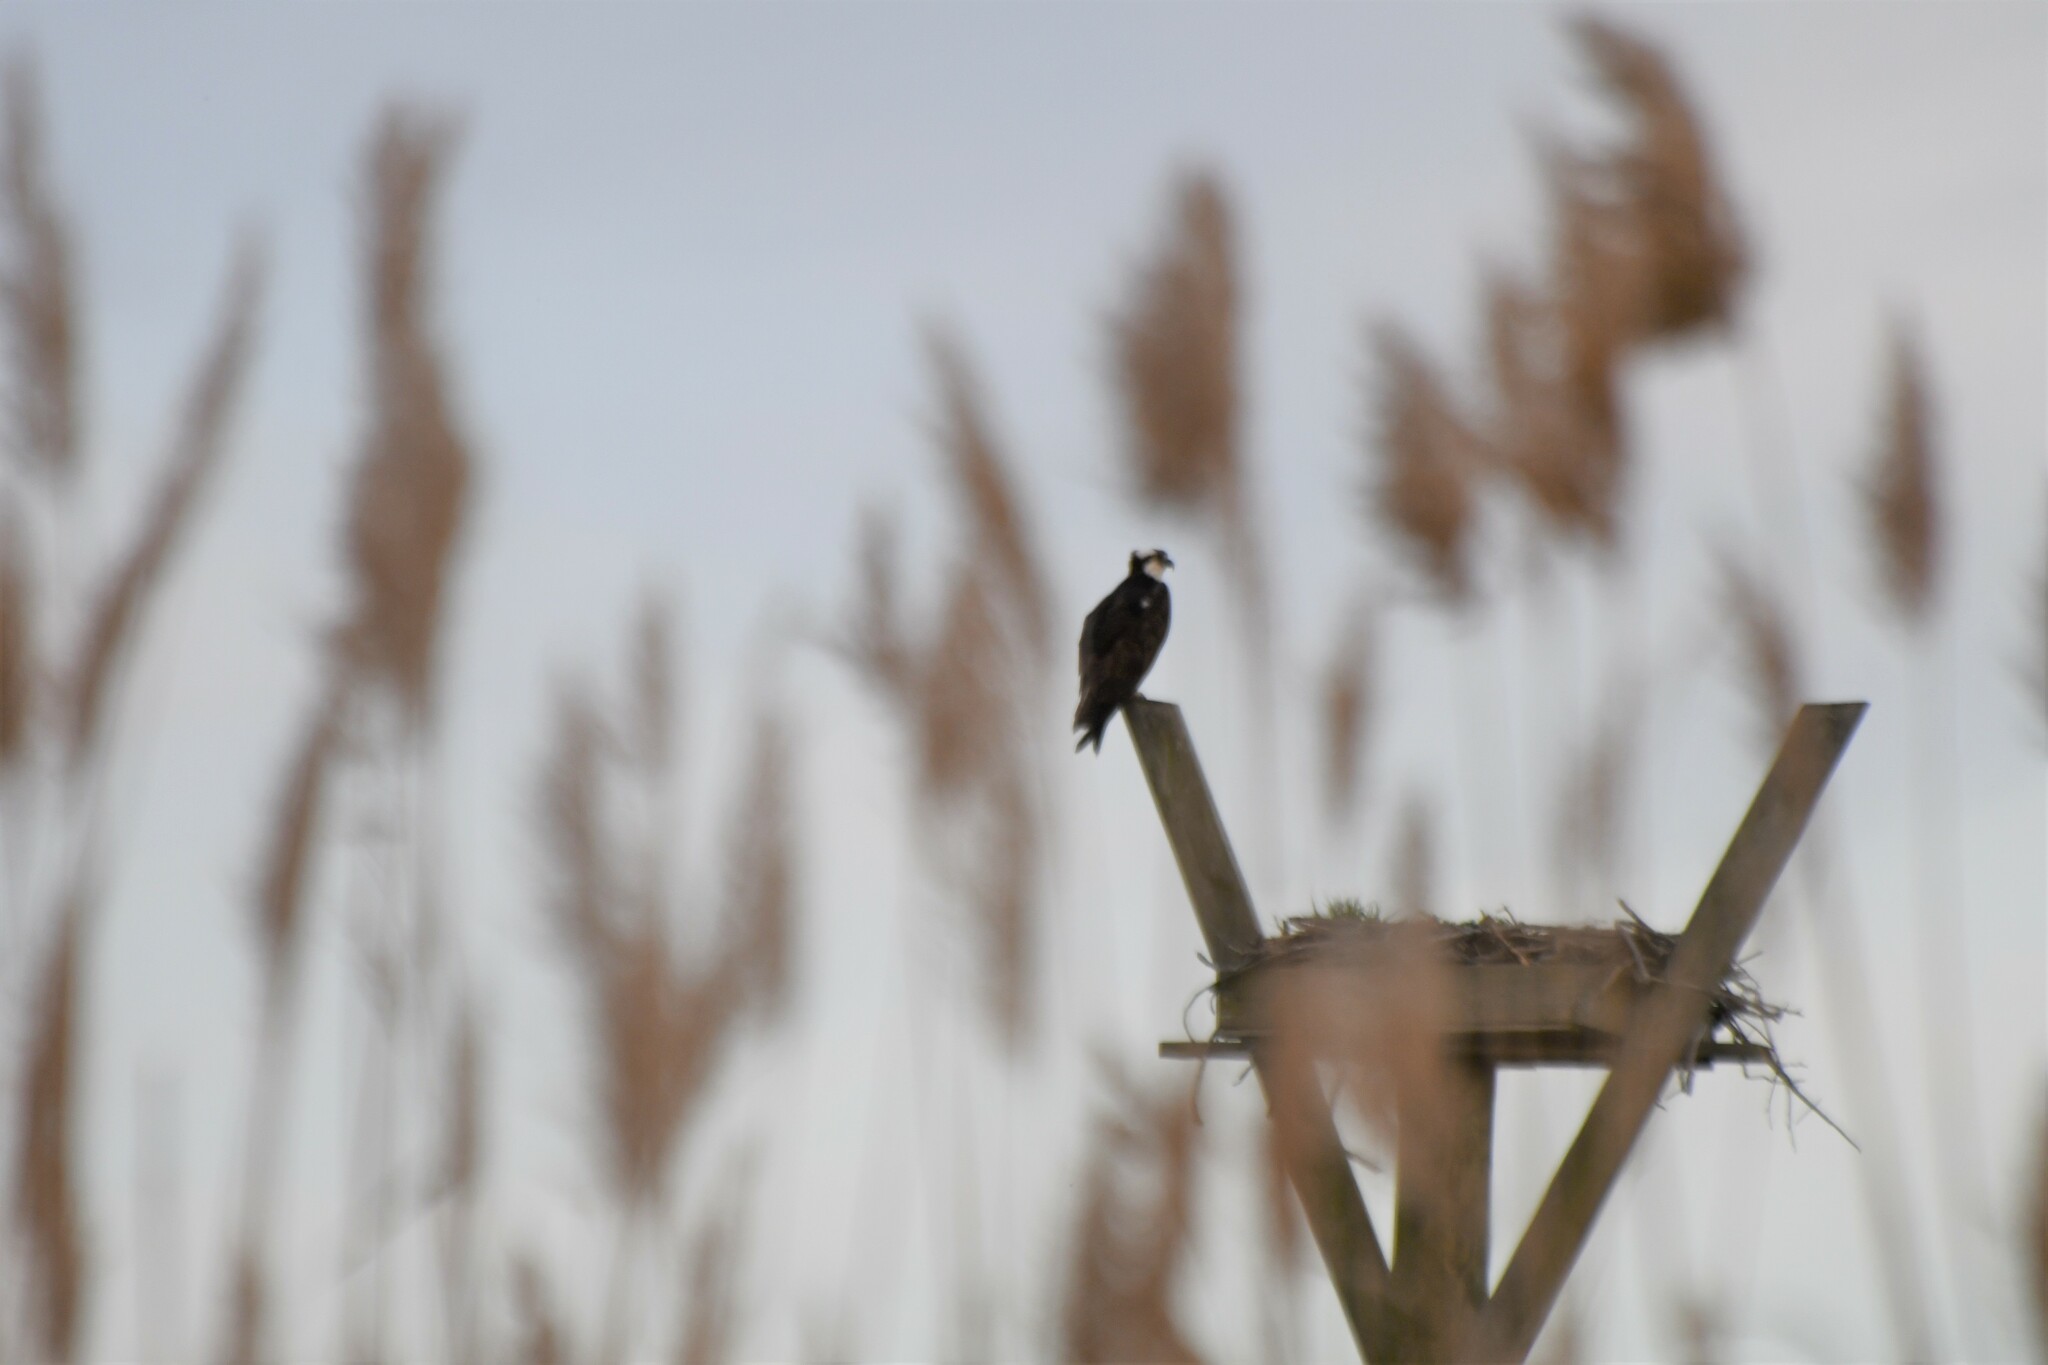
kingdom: Animalia
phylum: Chordata
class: Aves
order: Accipitriformes
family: Pandionidae
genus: Pandion
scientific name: Pandion haliaetus
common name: Osprey
